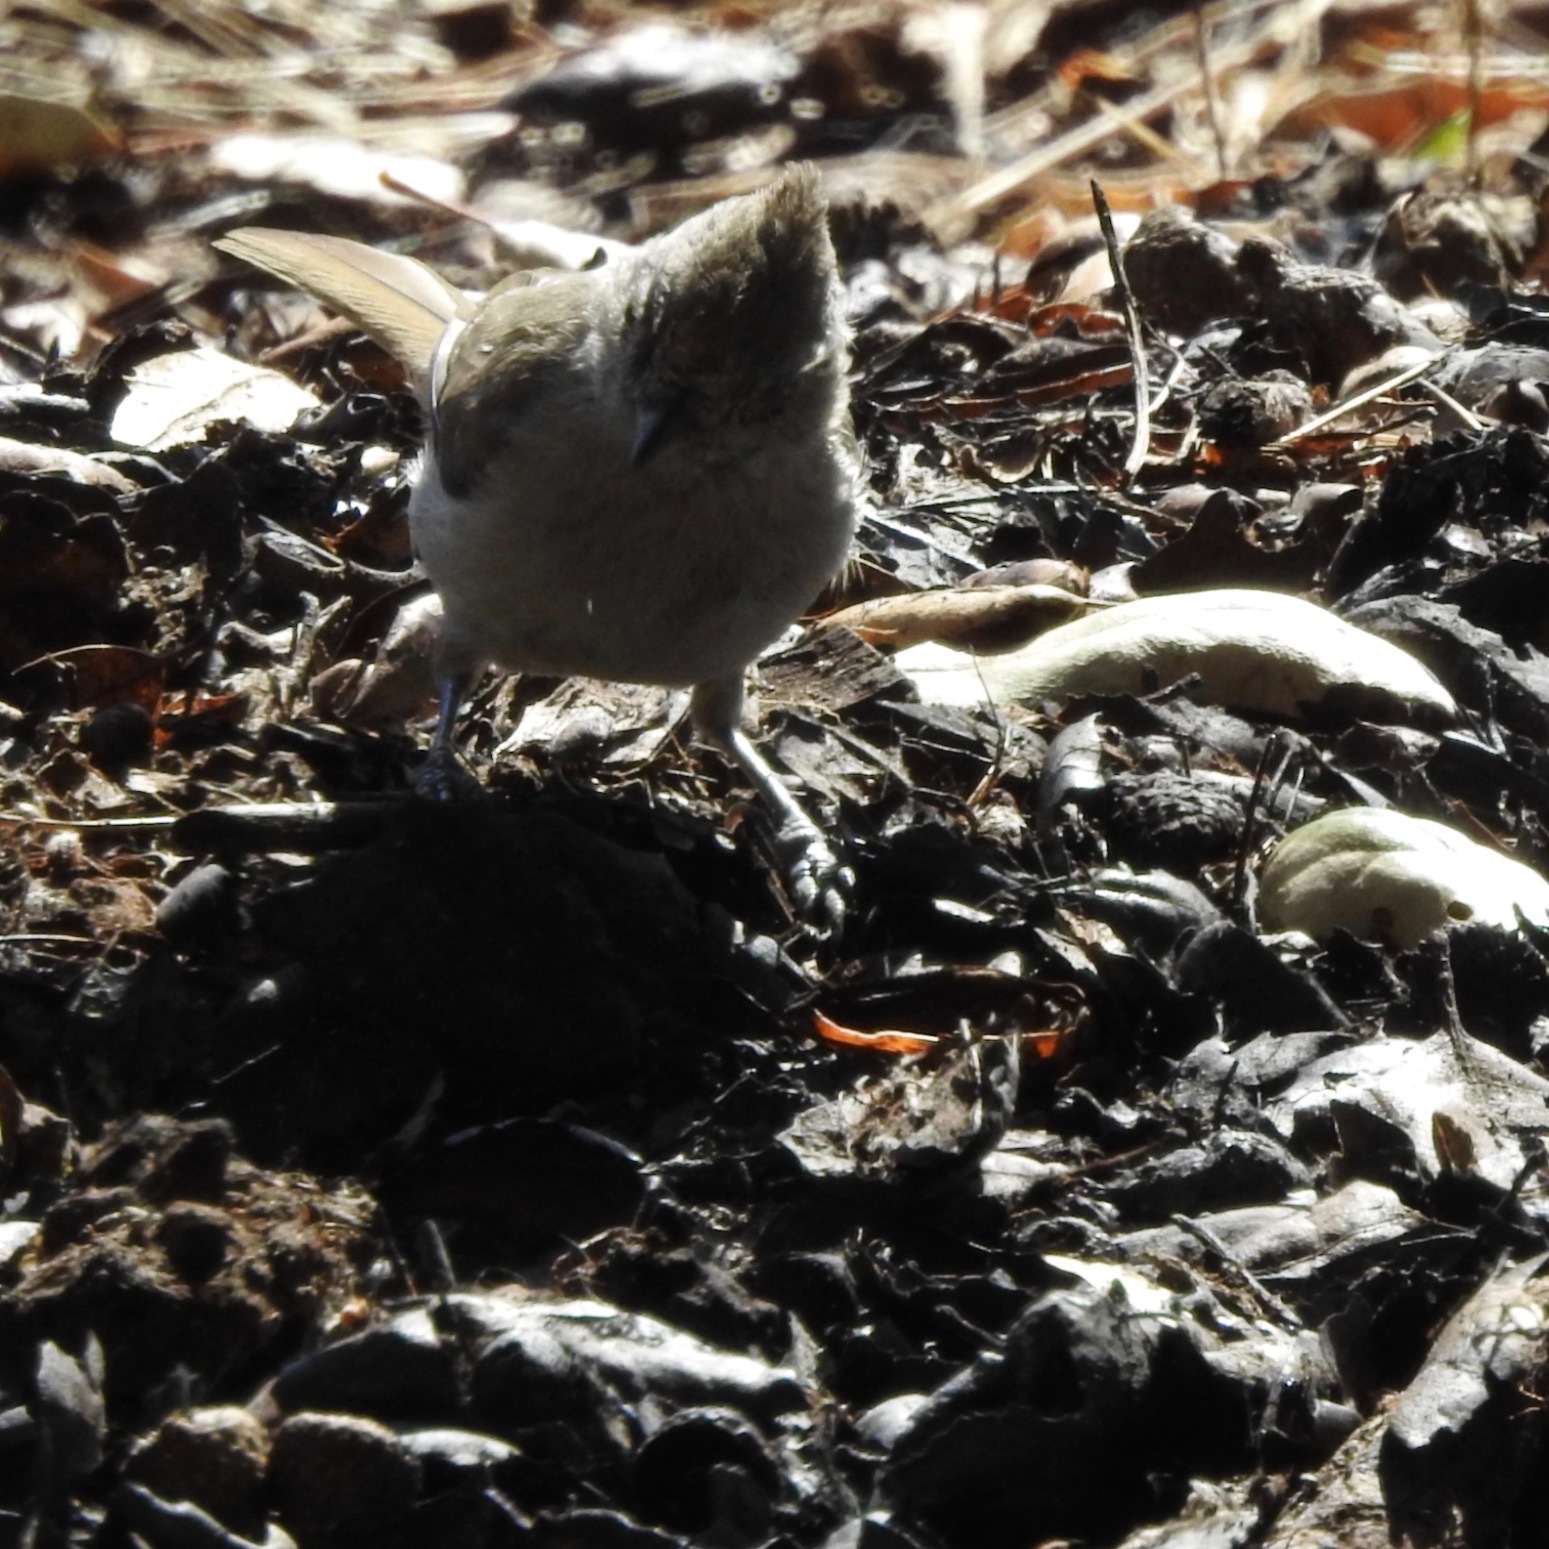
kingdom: Animalia
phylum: Chordata
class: Aves
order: Passeriformes
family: Paridae
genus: Baeolophus
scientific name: Baeolophus inornatus
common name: Oak titmouse
